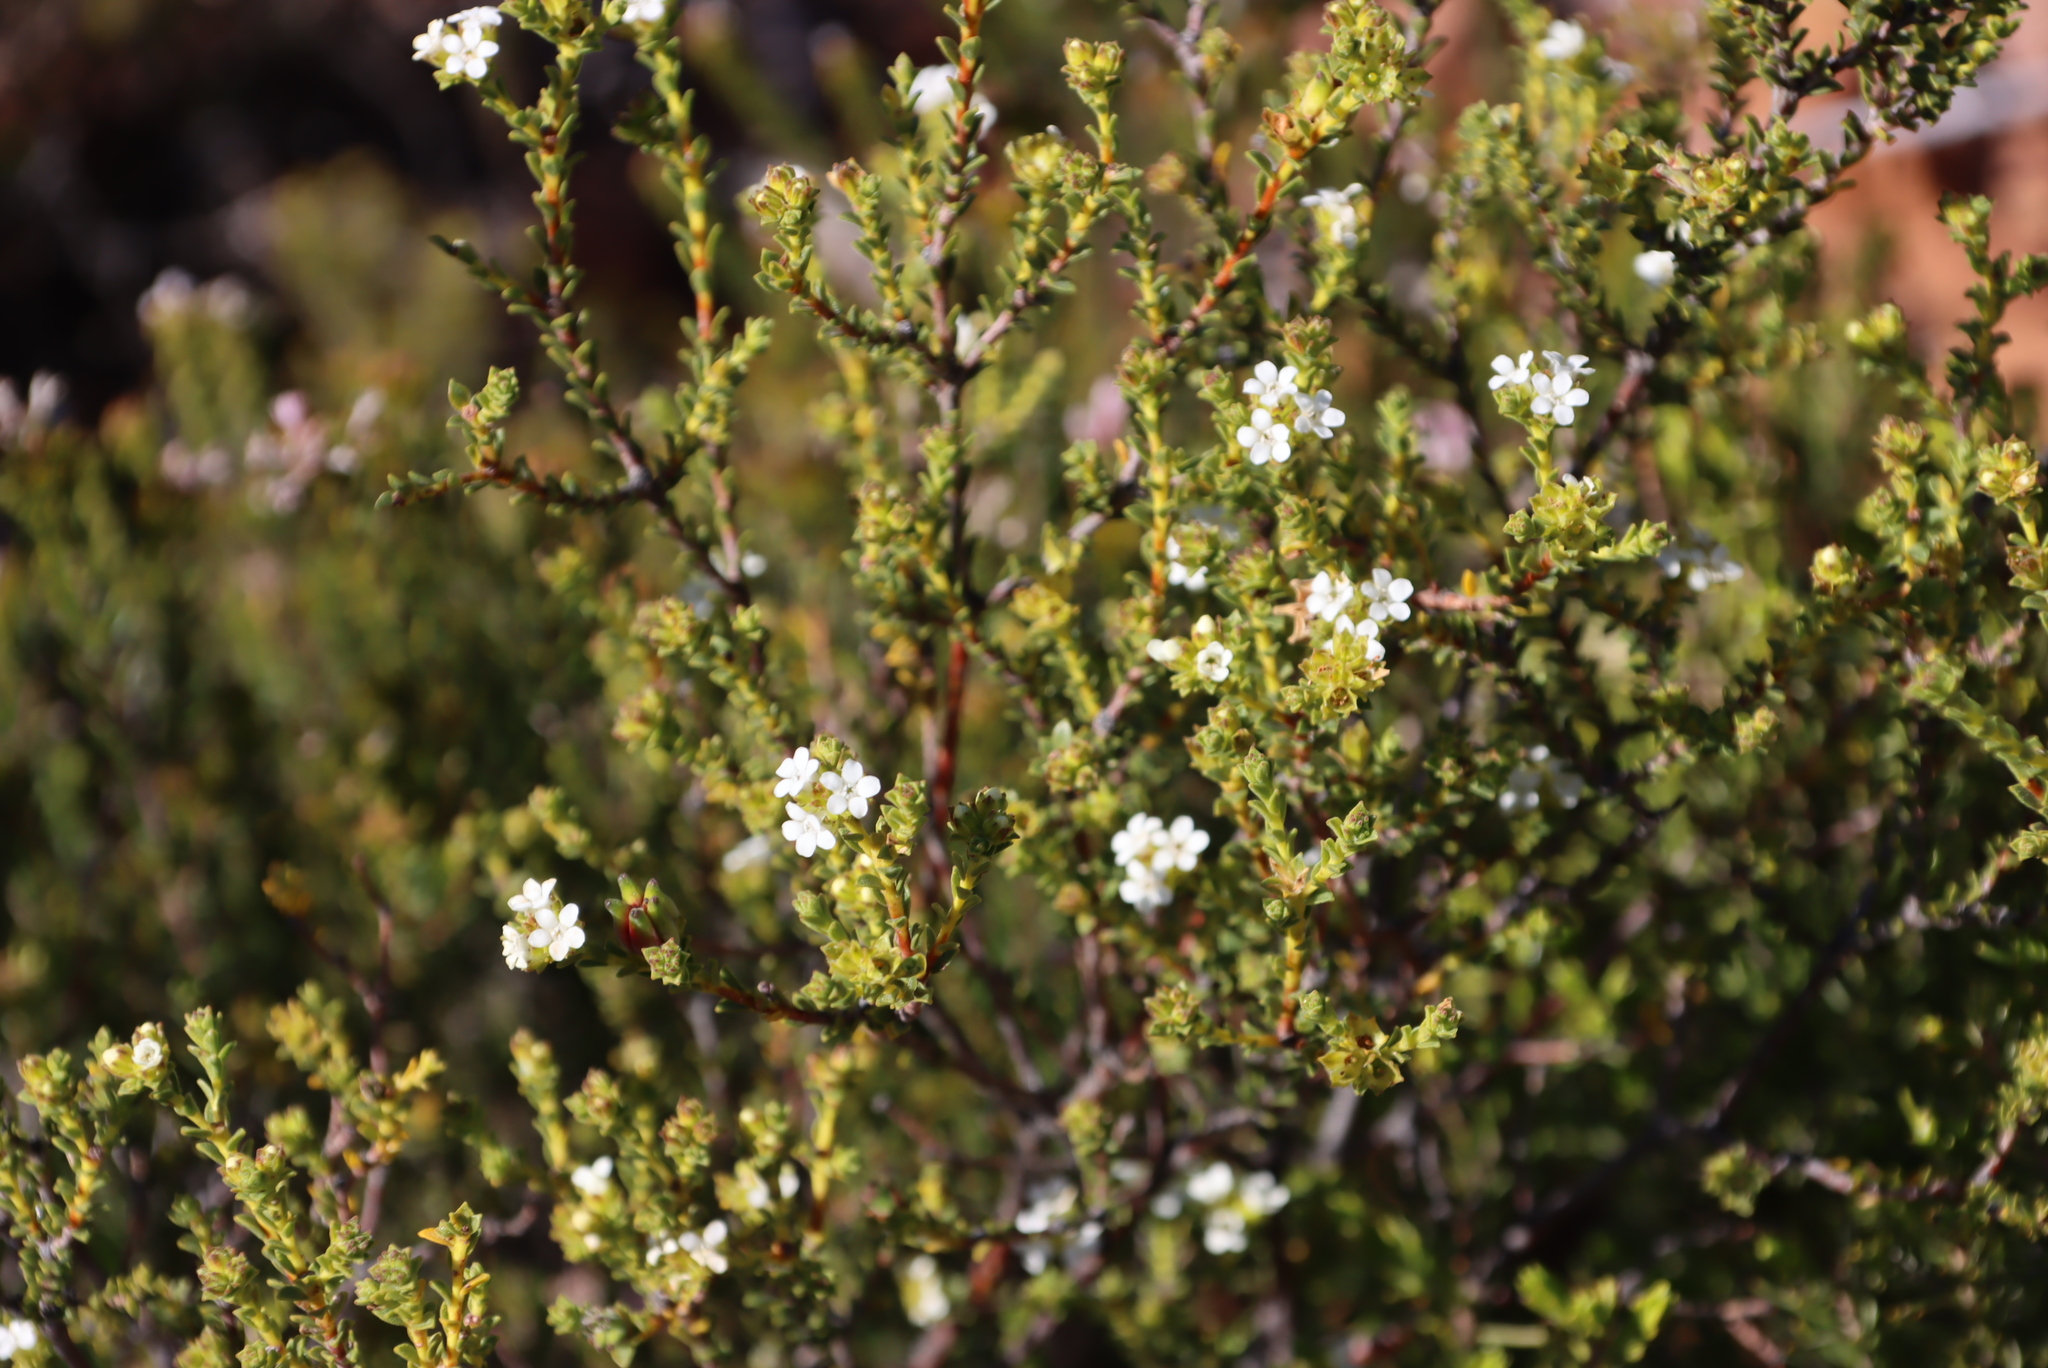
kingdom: Plantae
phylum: Tracheophyta
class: Magnoliopsida
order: Sapindales
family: Rutaceae
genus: Euchaetis
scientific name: Euchaetis vallis-simiae
